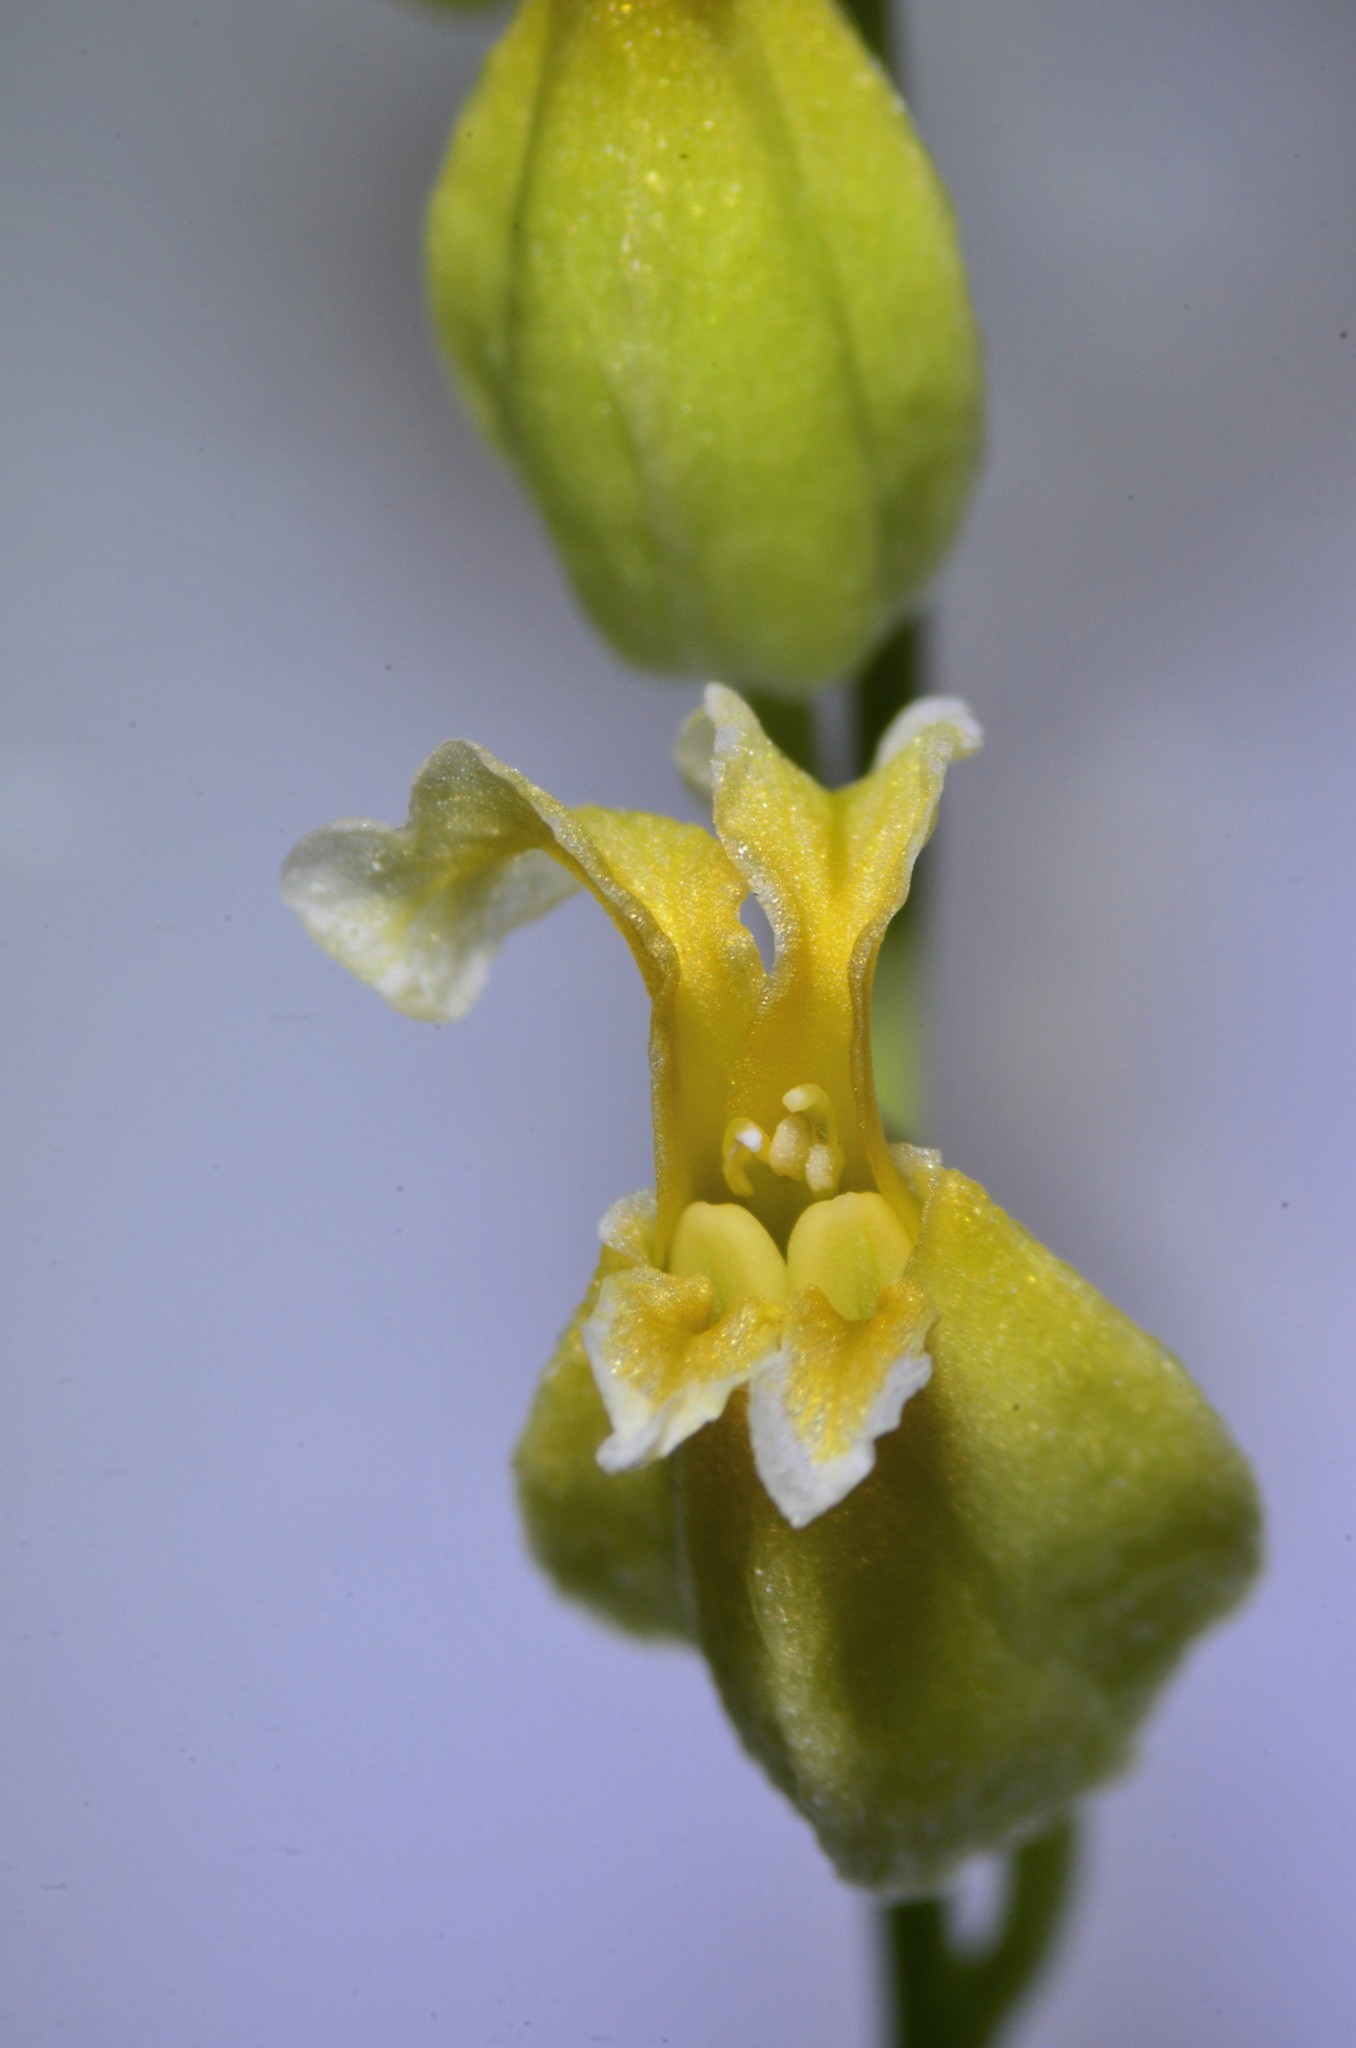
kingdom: Plantae
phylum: Tracheophyta
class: Magnoliopsida
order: Brassicales
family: Brassicaceae
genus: Streptanthus
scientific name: Streptanthus glandulosus
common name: Jewel-flower
